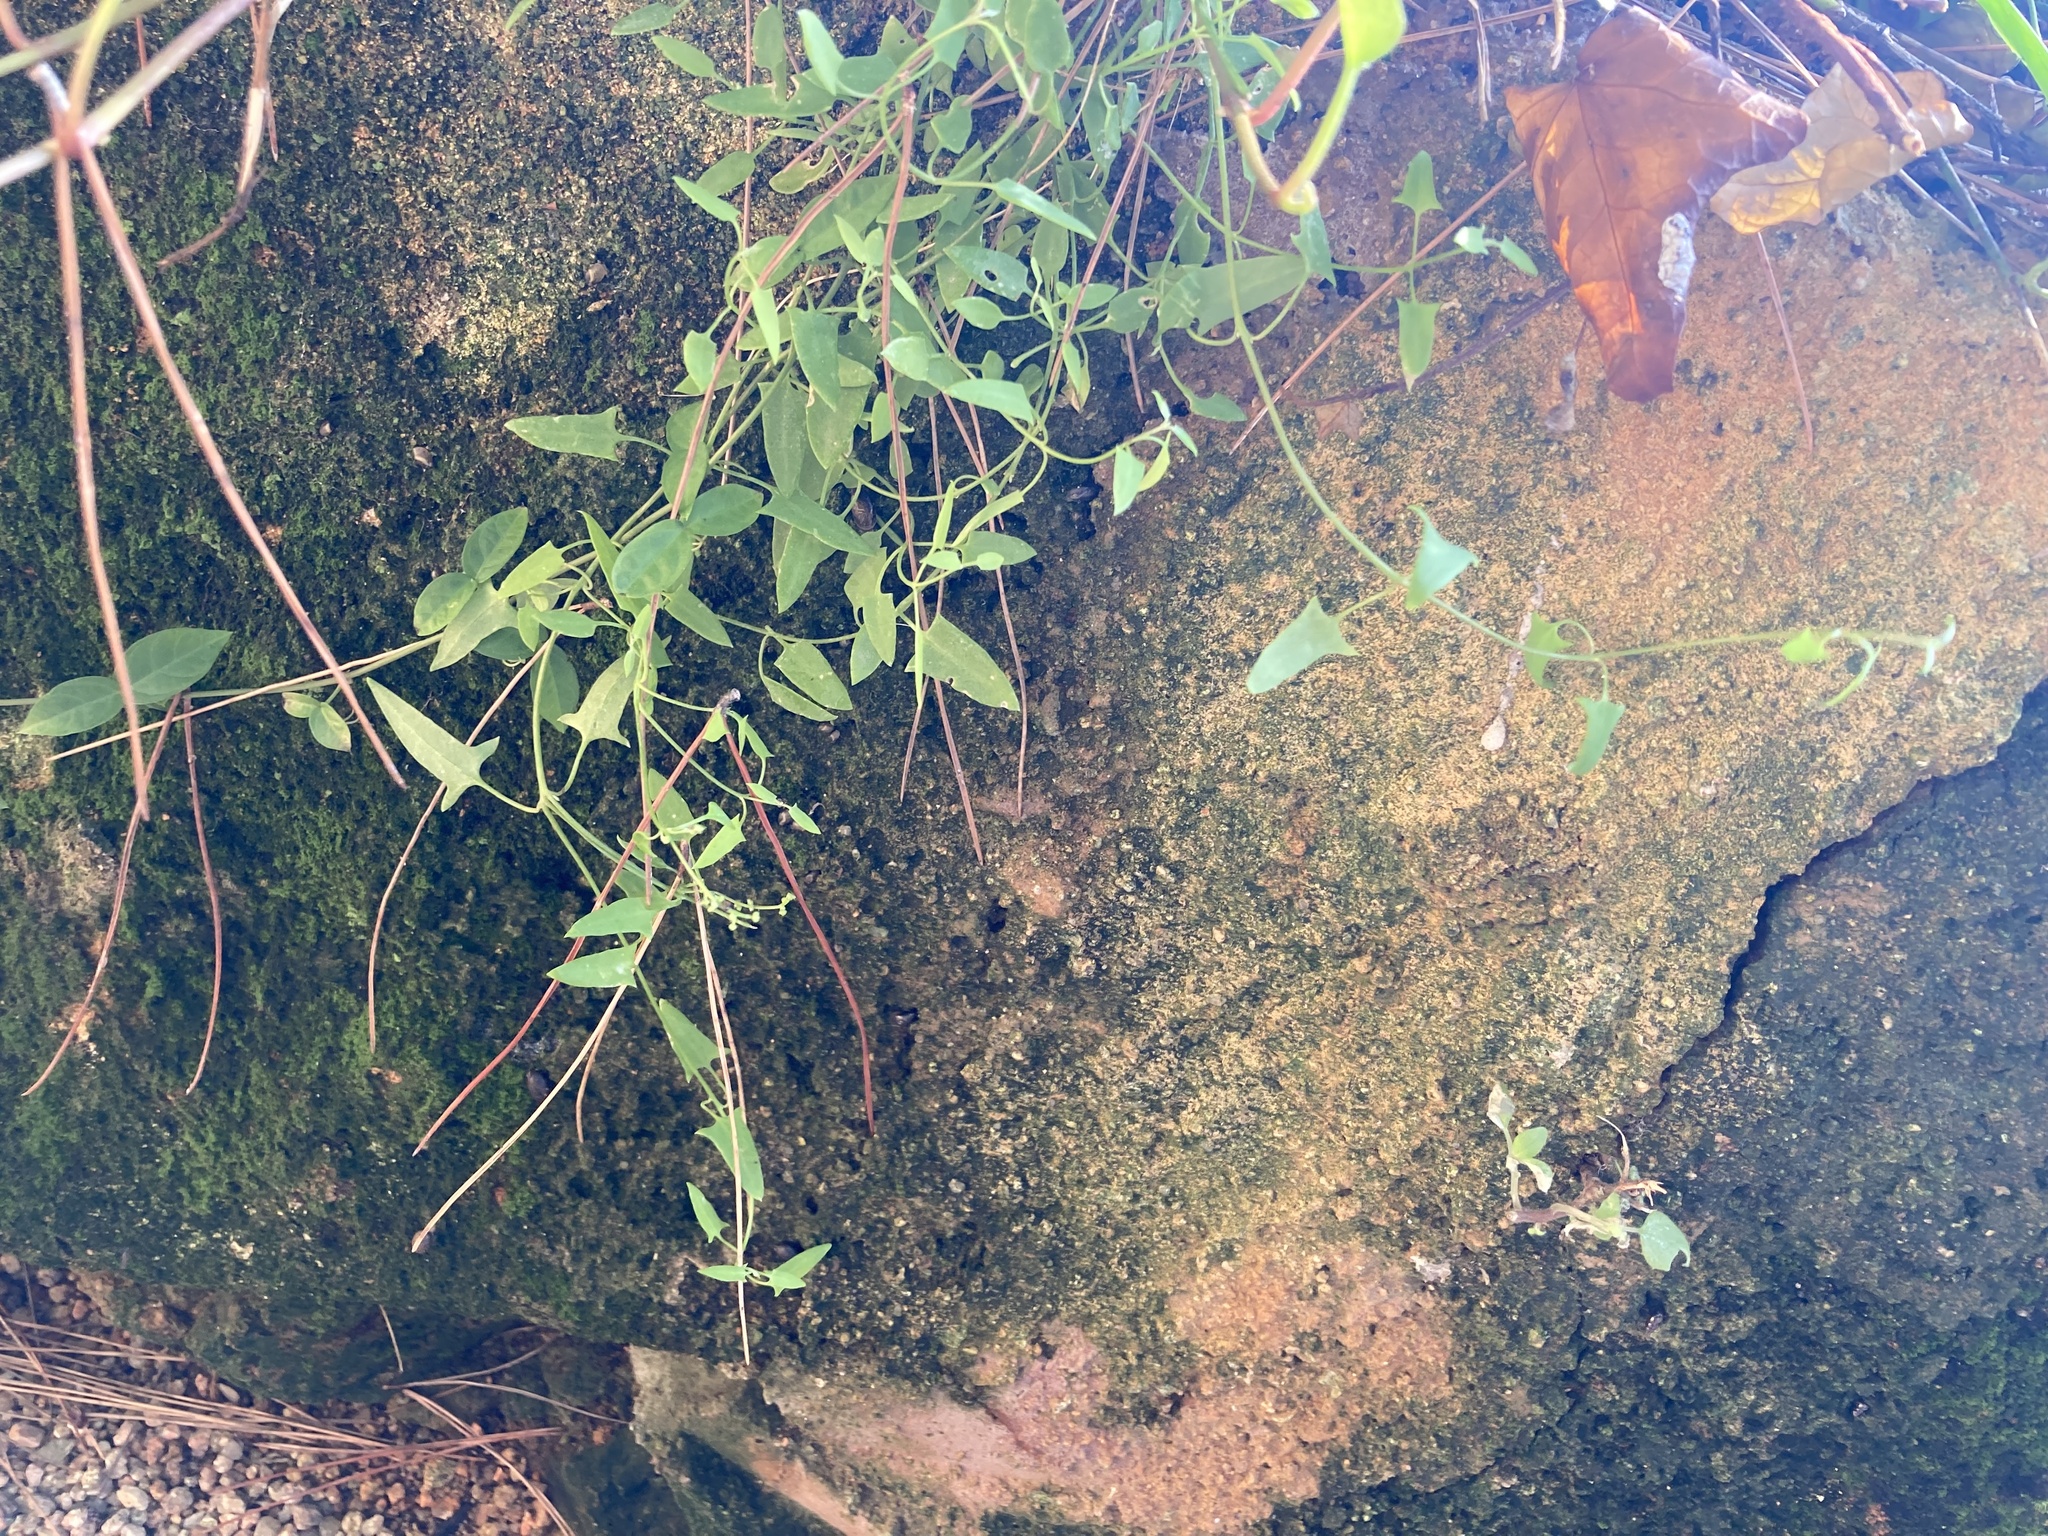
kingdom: Plantae
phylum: Tracheophyta
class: Magnoliopsida
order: Caryophyllales
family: Amaranthaceae
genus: Chenopodium
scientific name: Chenopodium nutans
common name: Climbing-saltbush
